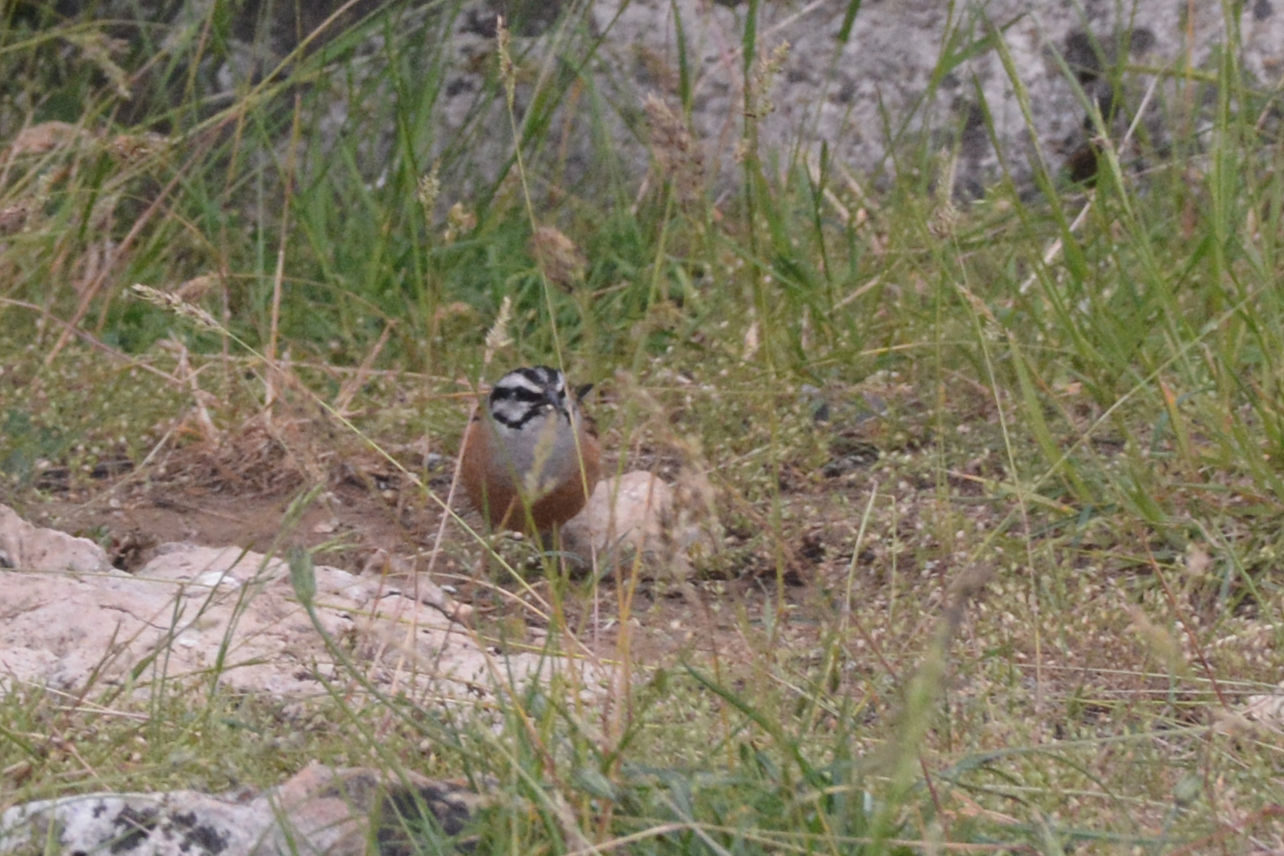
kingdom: Animalia
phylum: Chordata
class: Aves
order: Passeriformes
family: Emberizidae
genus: Emberiza
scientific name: Emberiza cia
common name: Rock bunting
